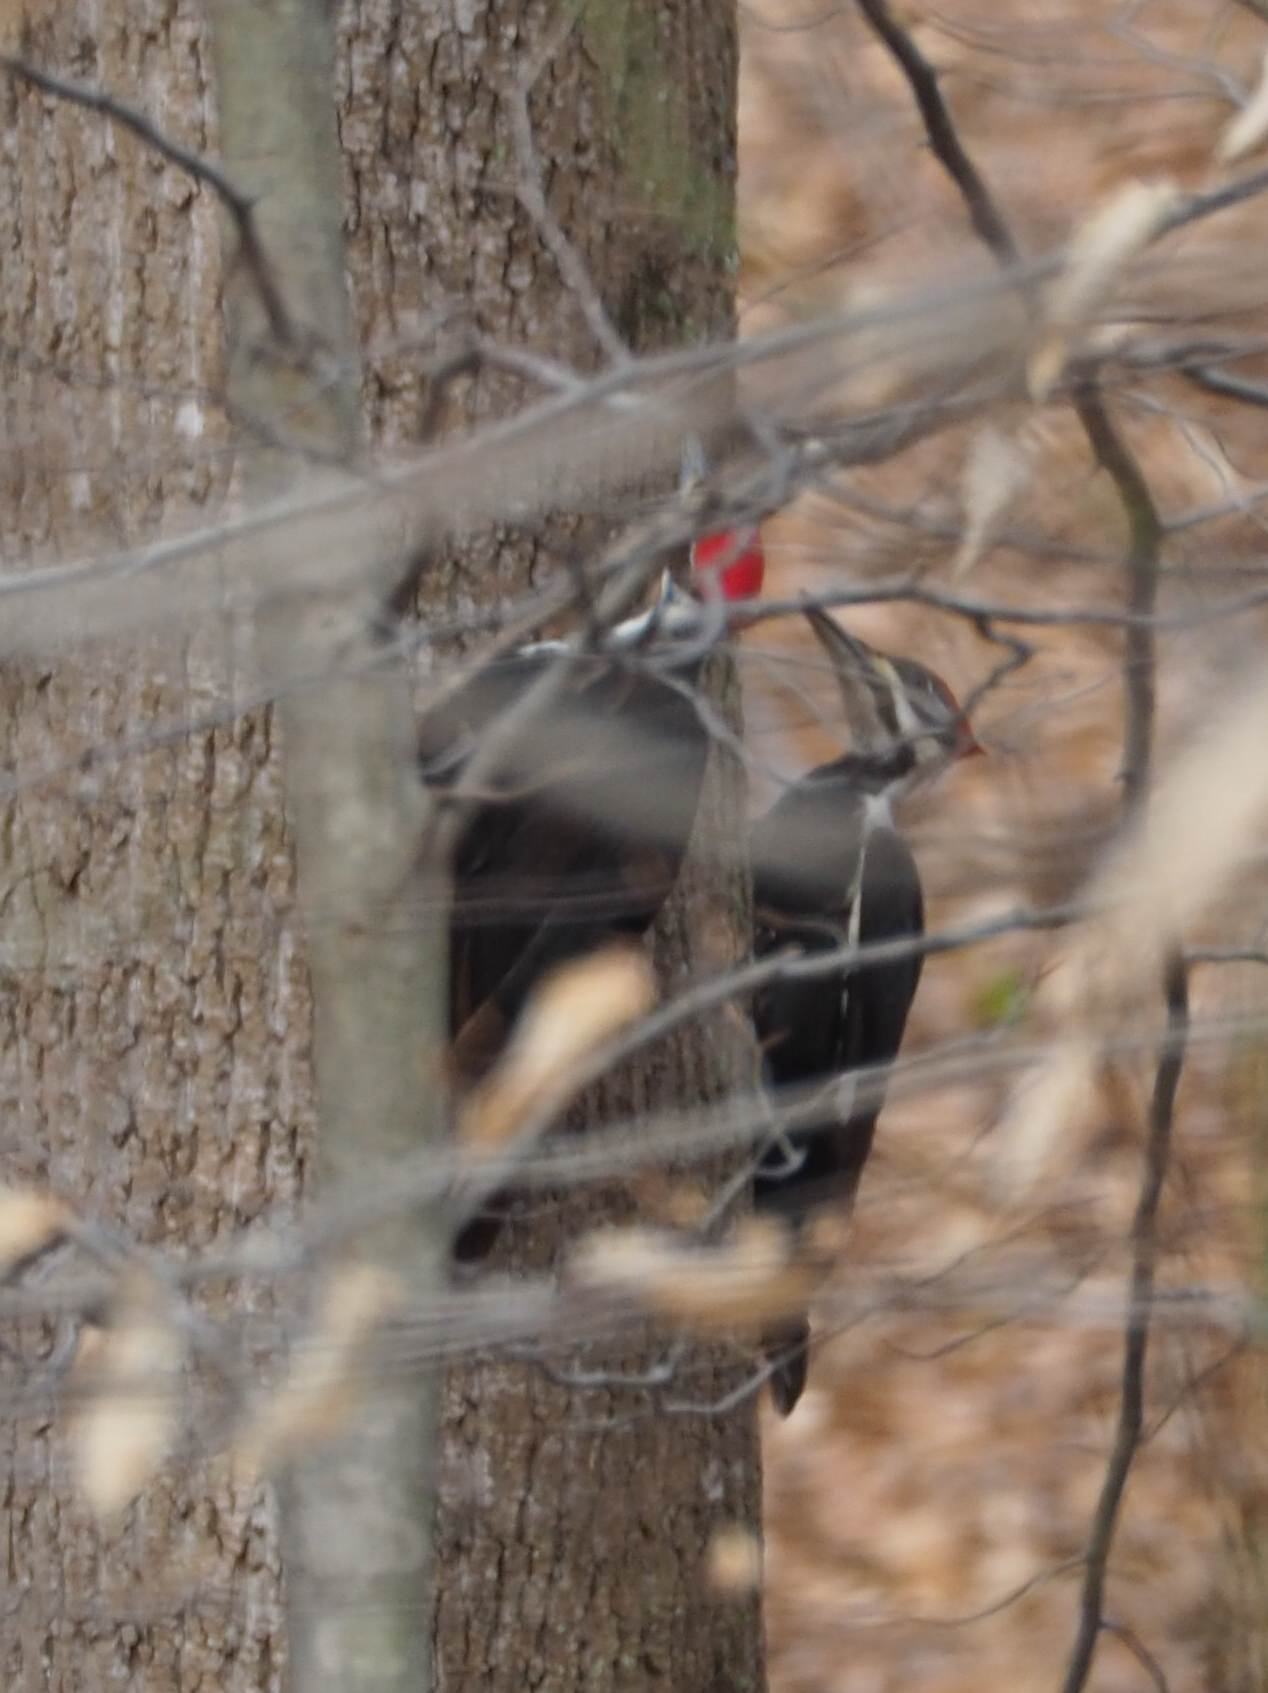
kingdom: Animalia
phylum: Chordata
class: Aves
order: Piciformes
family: Picidae
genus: Dryocopus
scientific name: Dryocopus pileatus
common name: Pileated woodpecker
